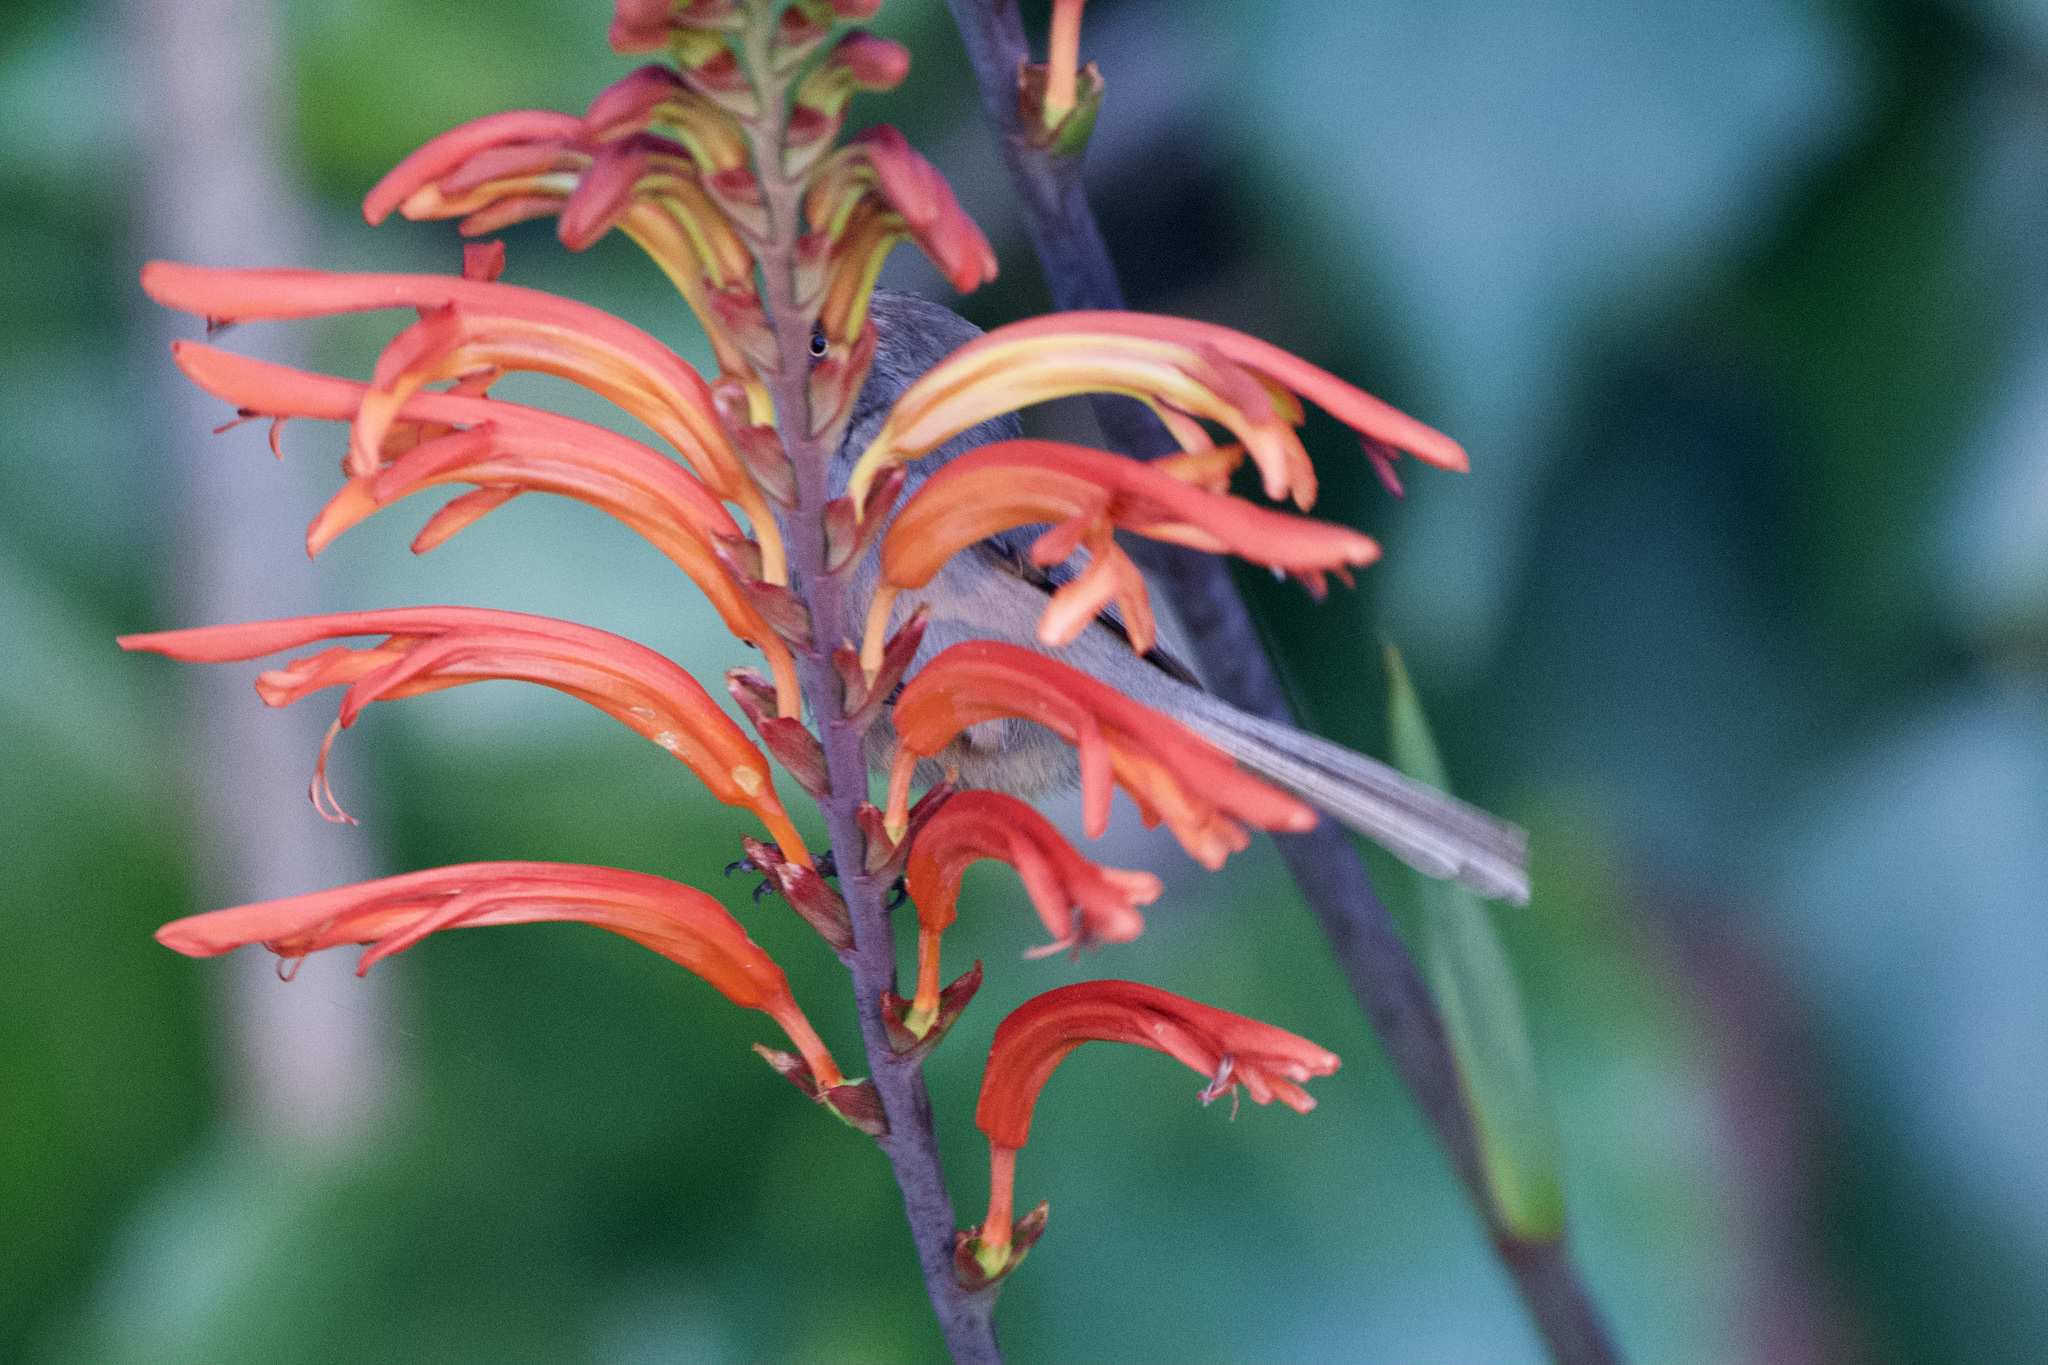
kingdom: Animalia
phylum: Chordata
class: Aves
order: Passeriformes
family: Aegithalidae
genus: Psaltriparus
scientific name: Psaltriparus minimus
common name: American bushtit
